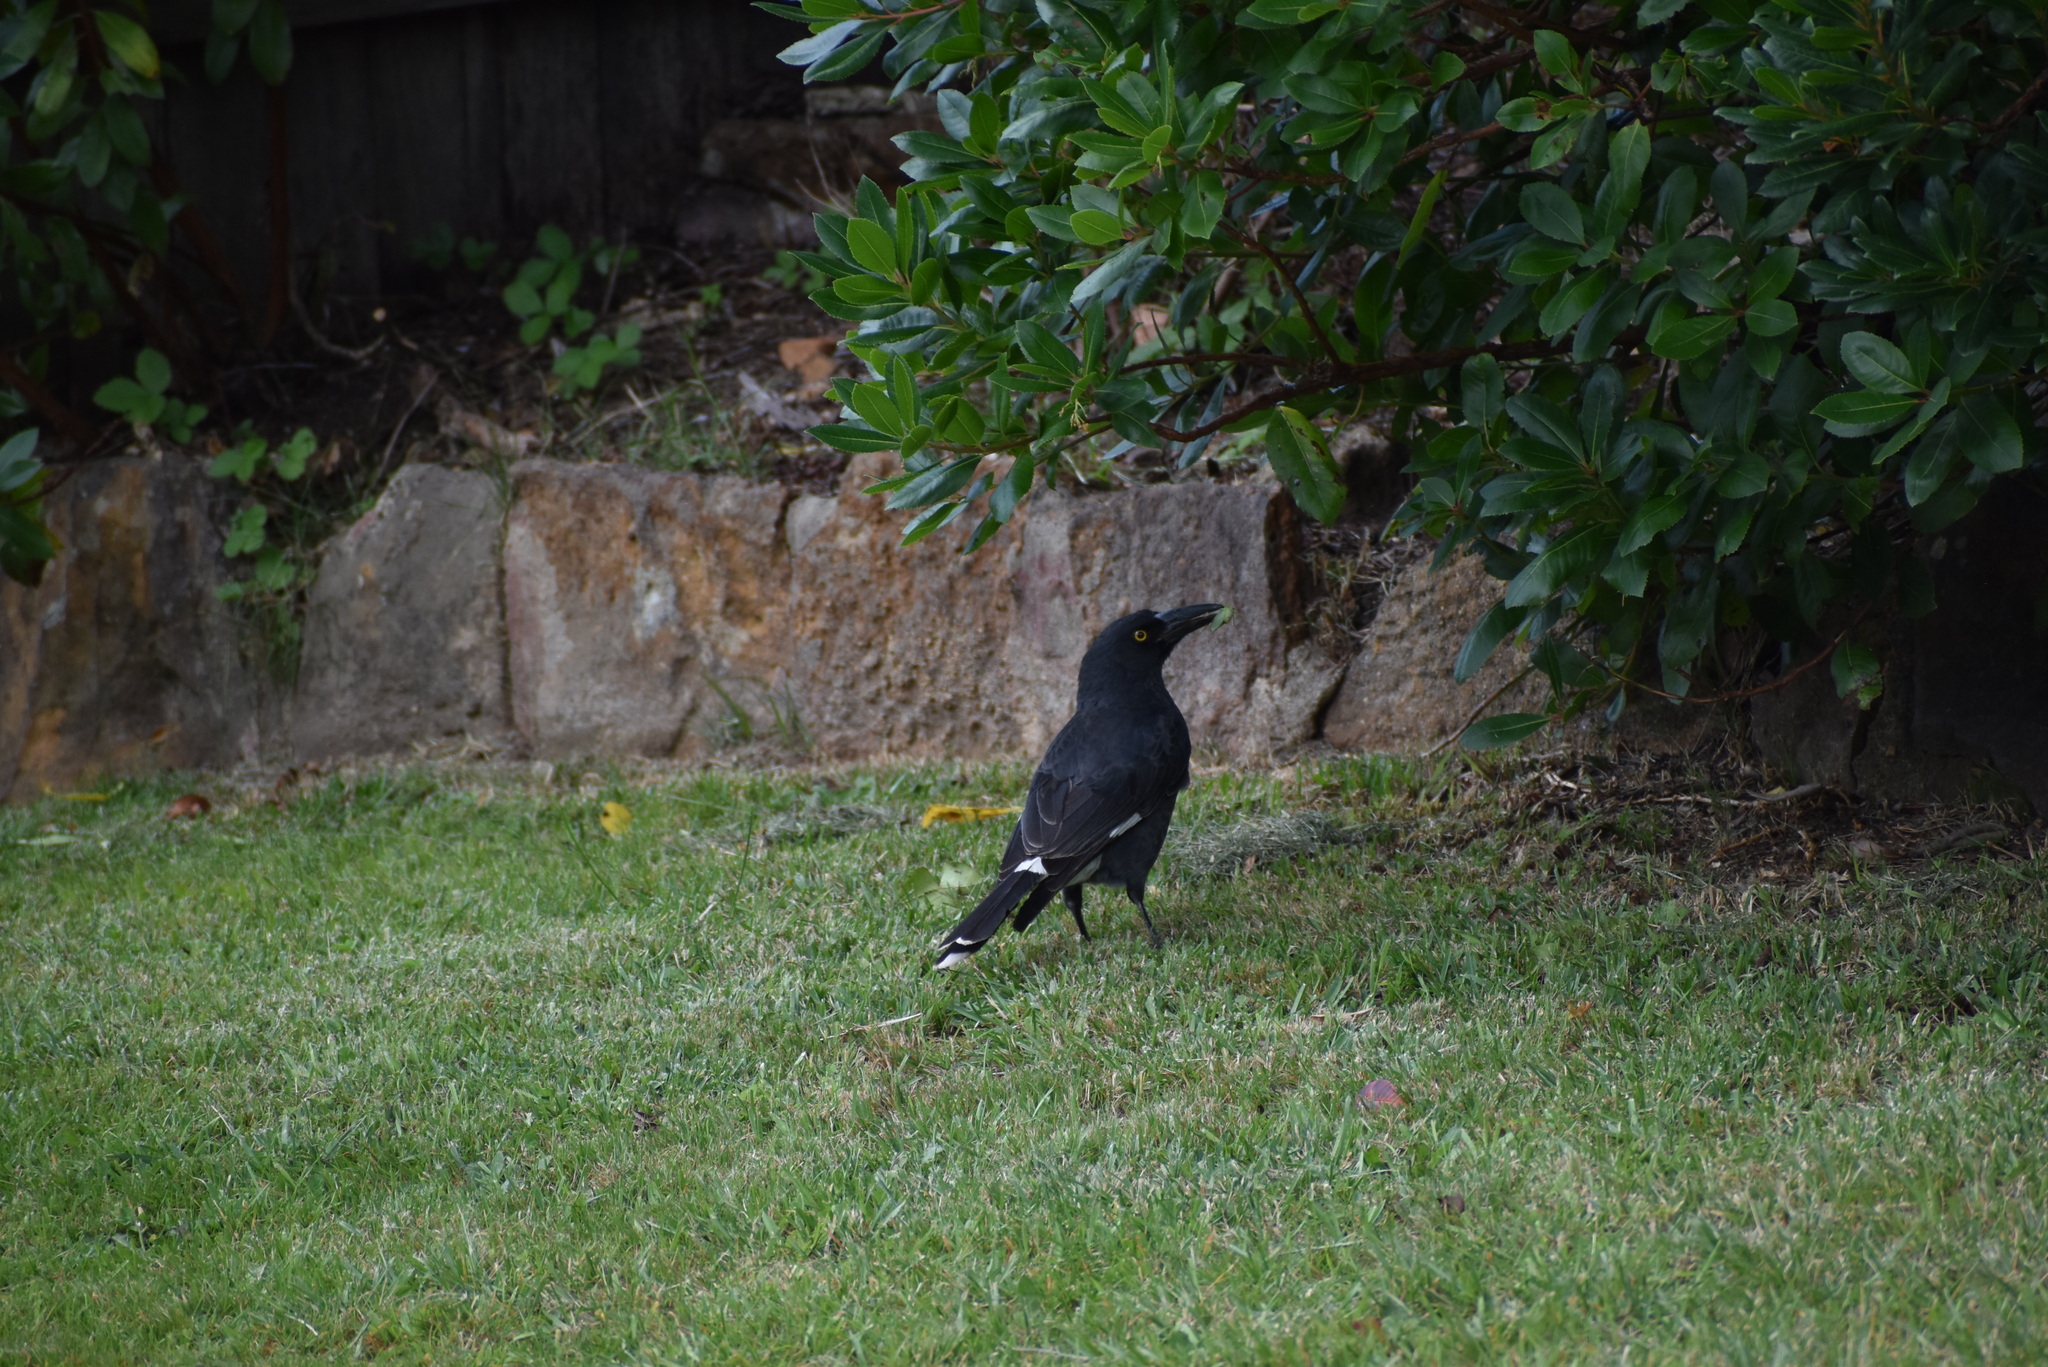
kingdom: Animalia
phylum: Chordata
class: Aves
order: Passeriformes
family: Cracticidae
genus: Strepera
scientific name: Strepera graculina
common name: Pied currawong
